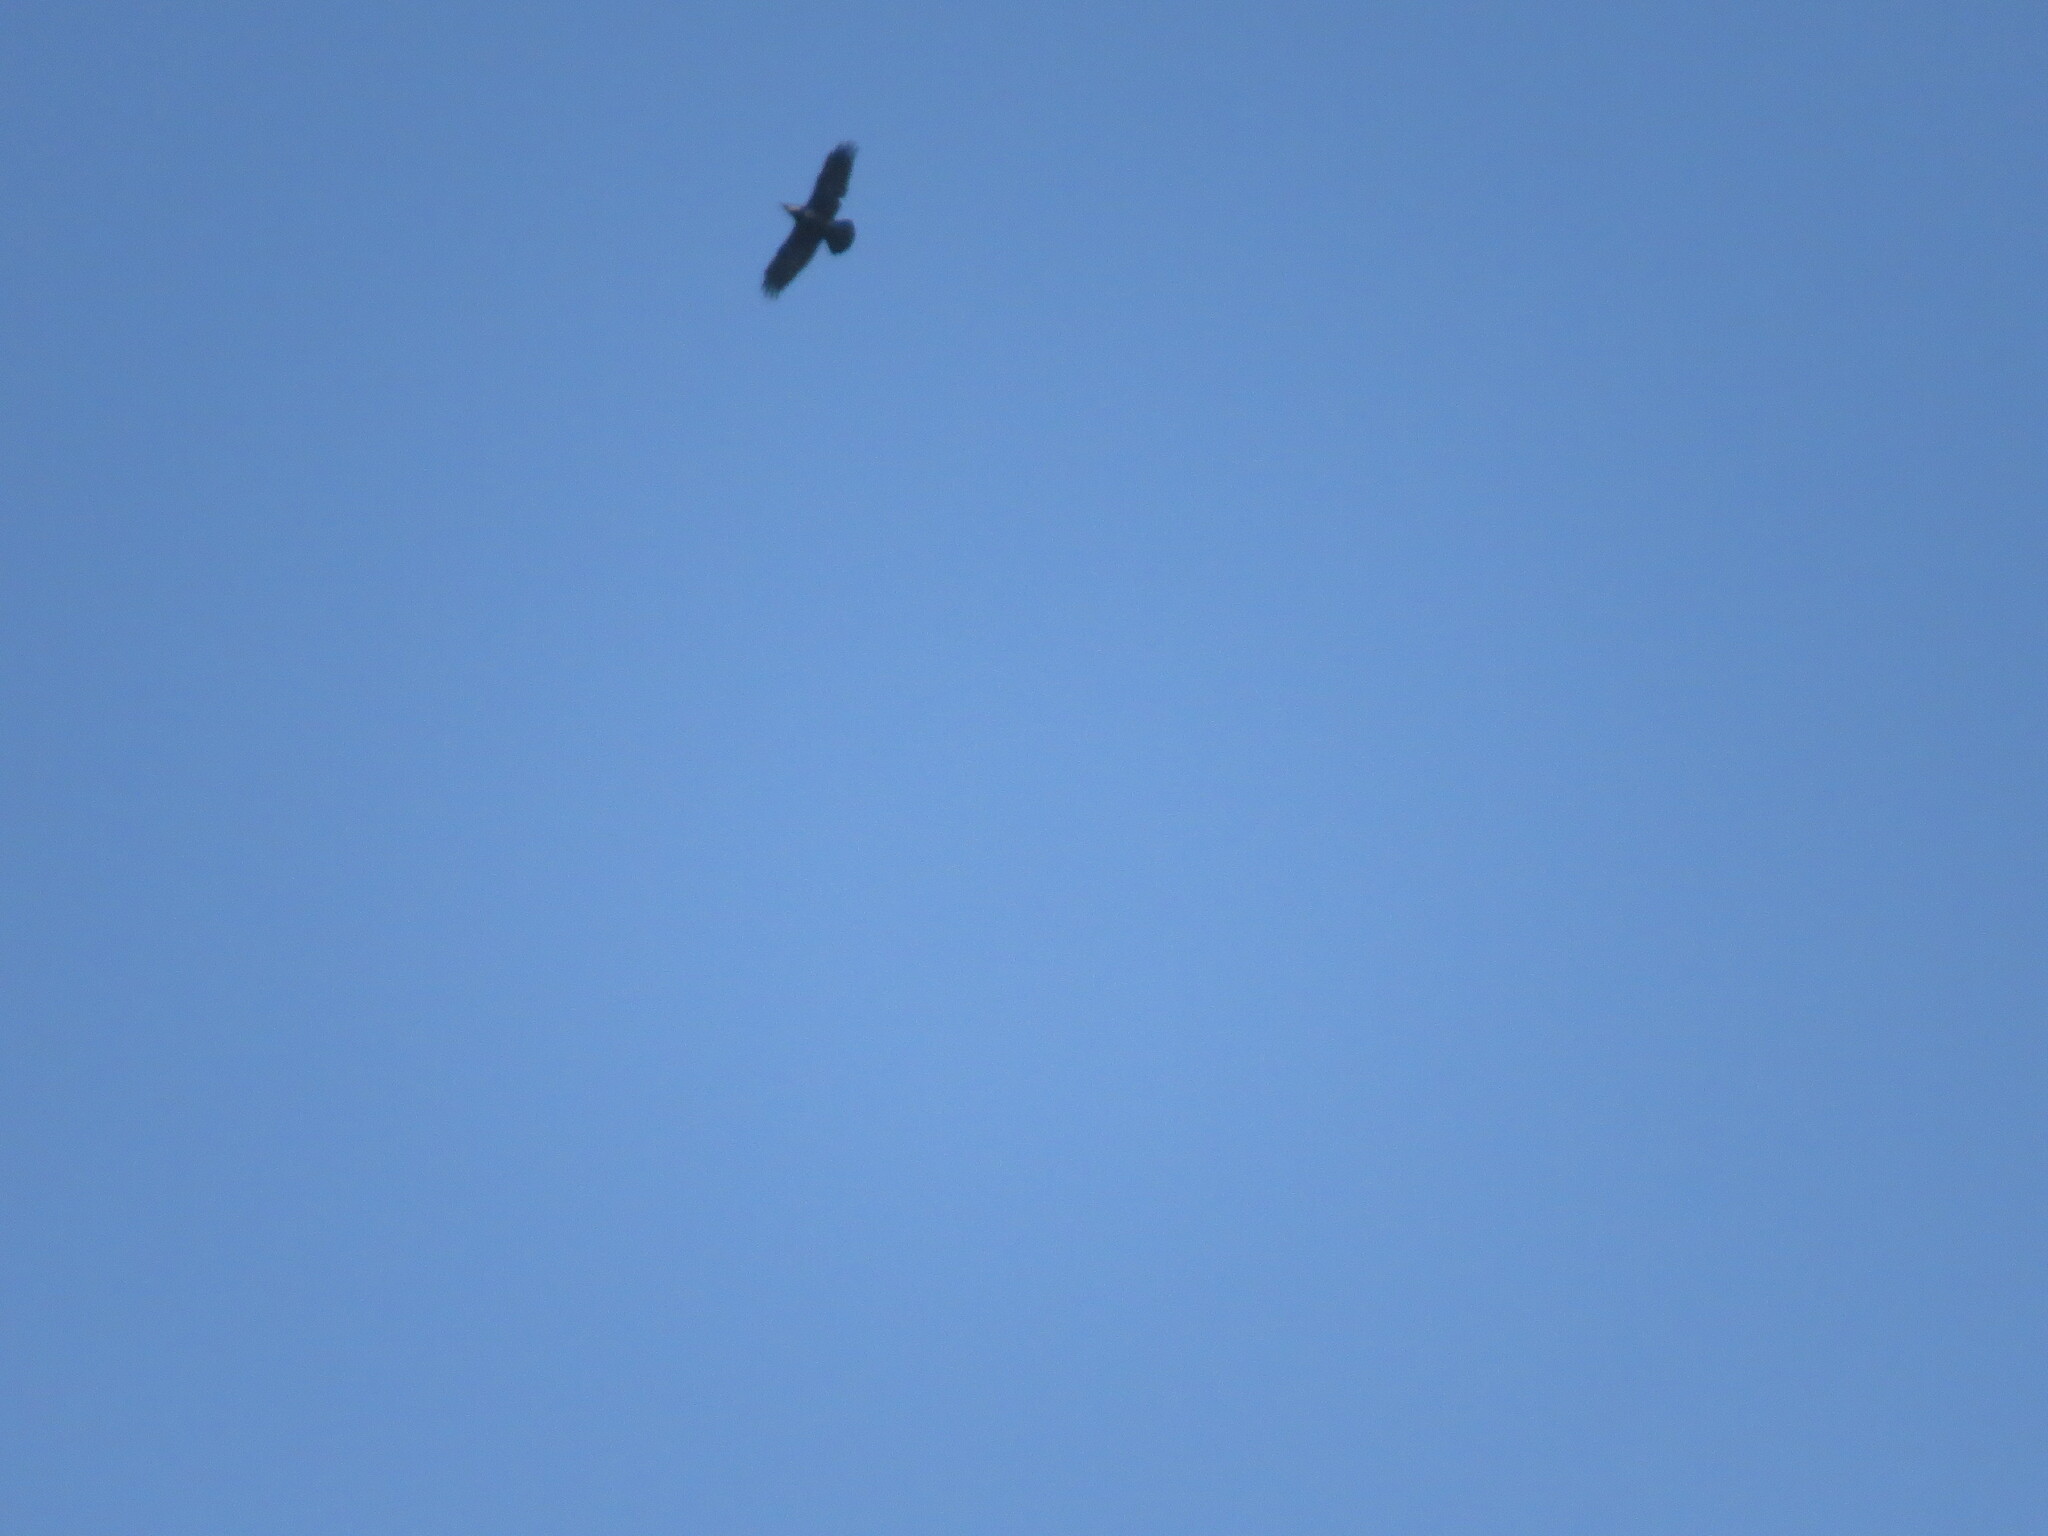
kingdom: Animalia
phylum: Chordata
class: Aves
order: Passeriformes
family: Corvidae
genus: Corvus
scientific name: Corvus corax
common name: Common raven
